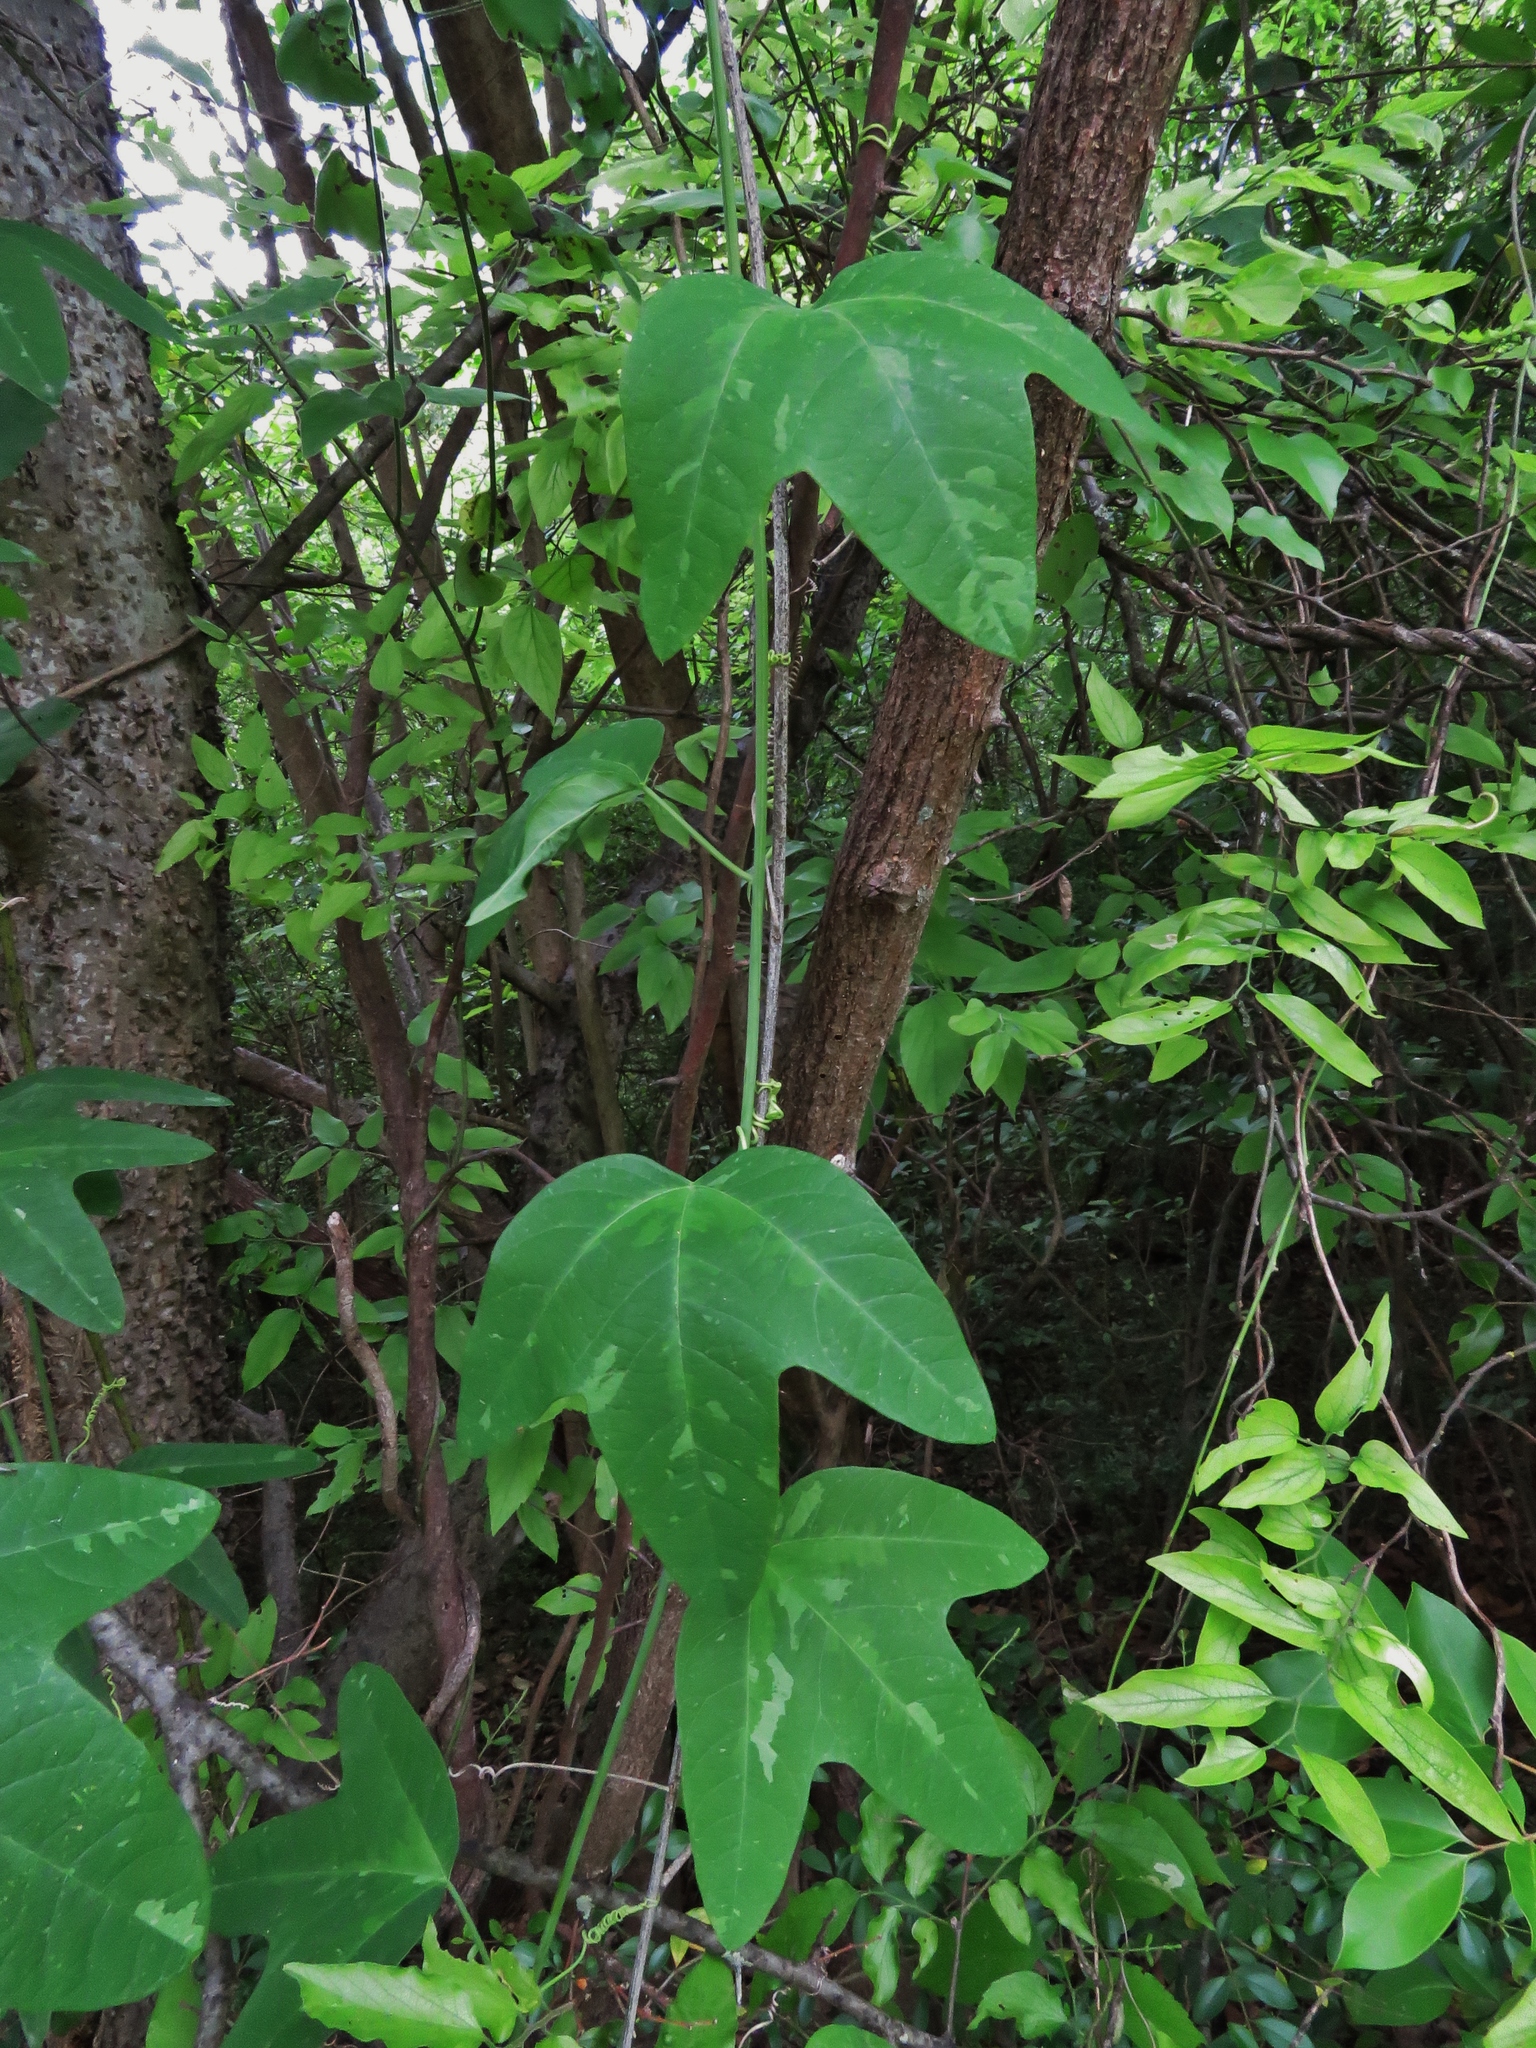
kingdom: Plantae
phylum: Tracheophyta
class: Magnoliopsida
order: Malpighiales
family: Passifloraceae
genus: Passiflora
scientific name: Passiflora lutea
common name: Yellow passionflower
